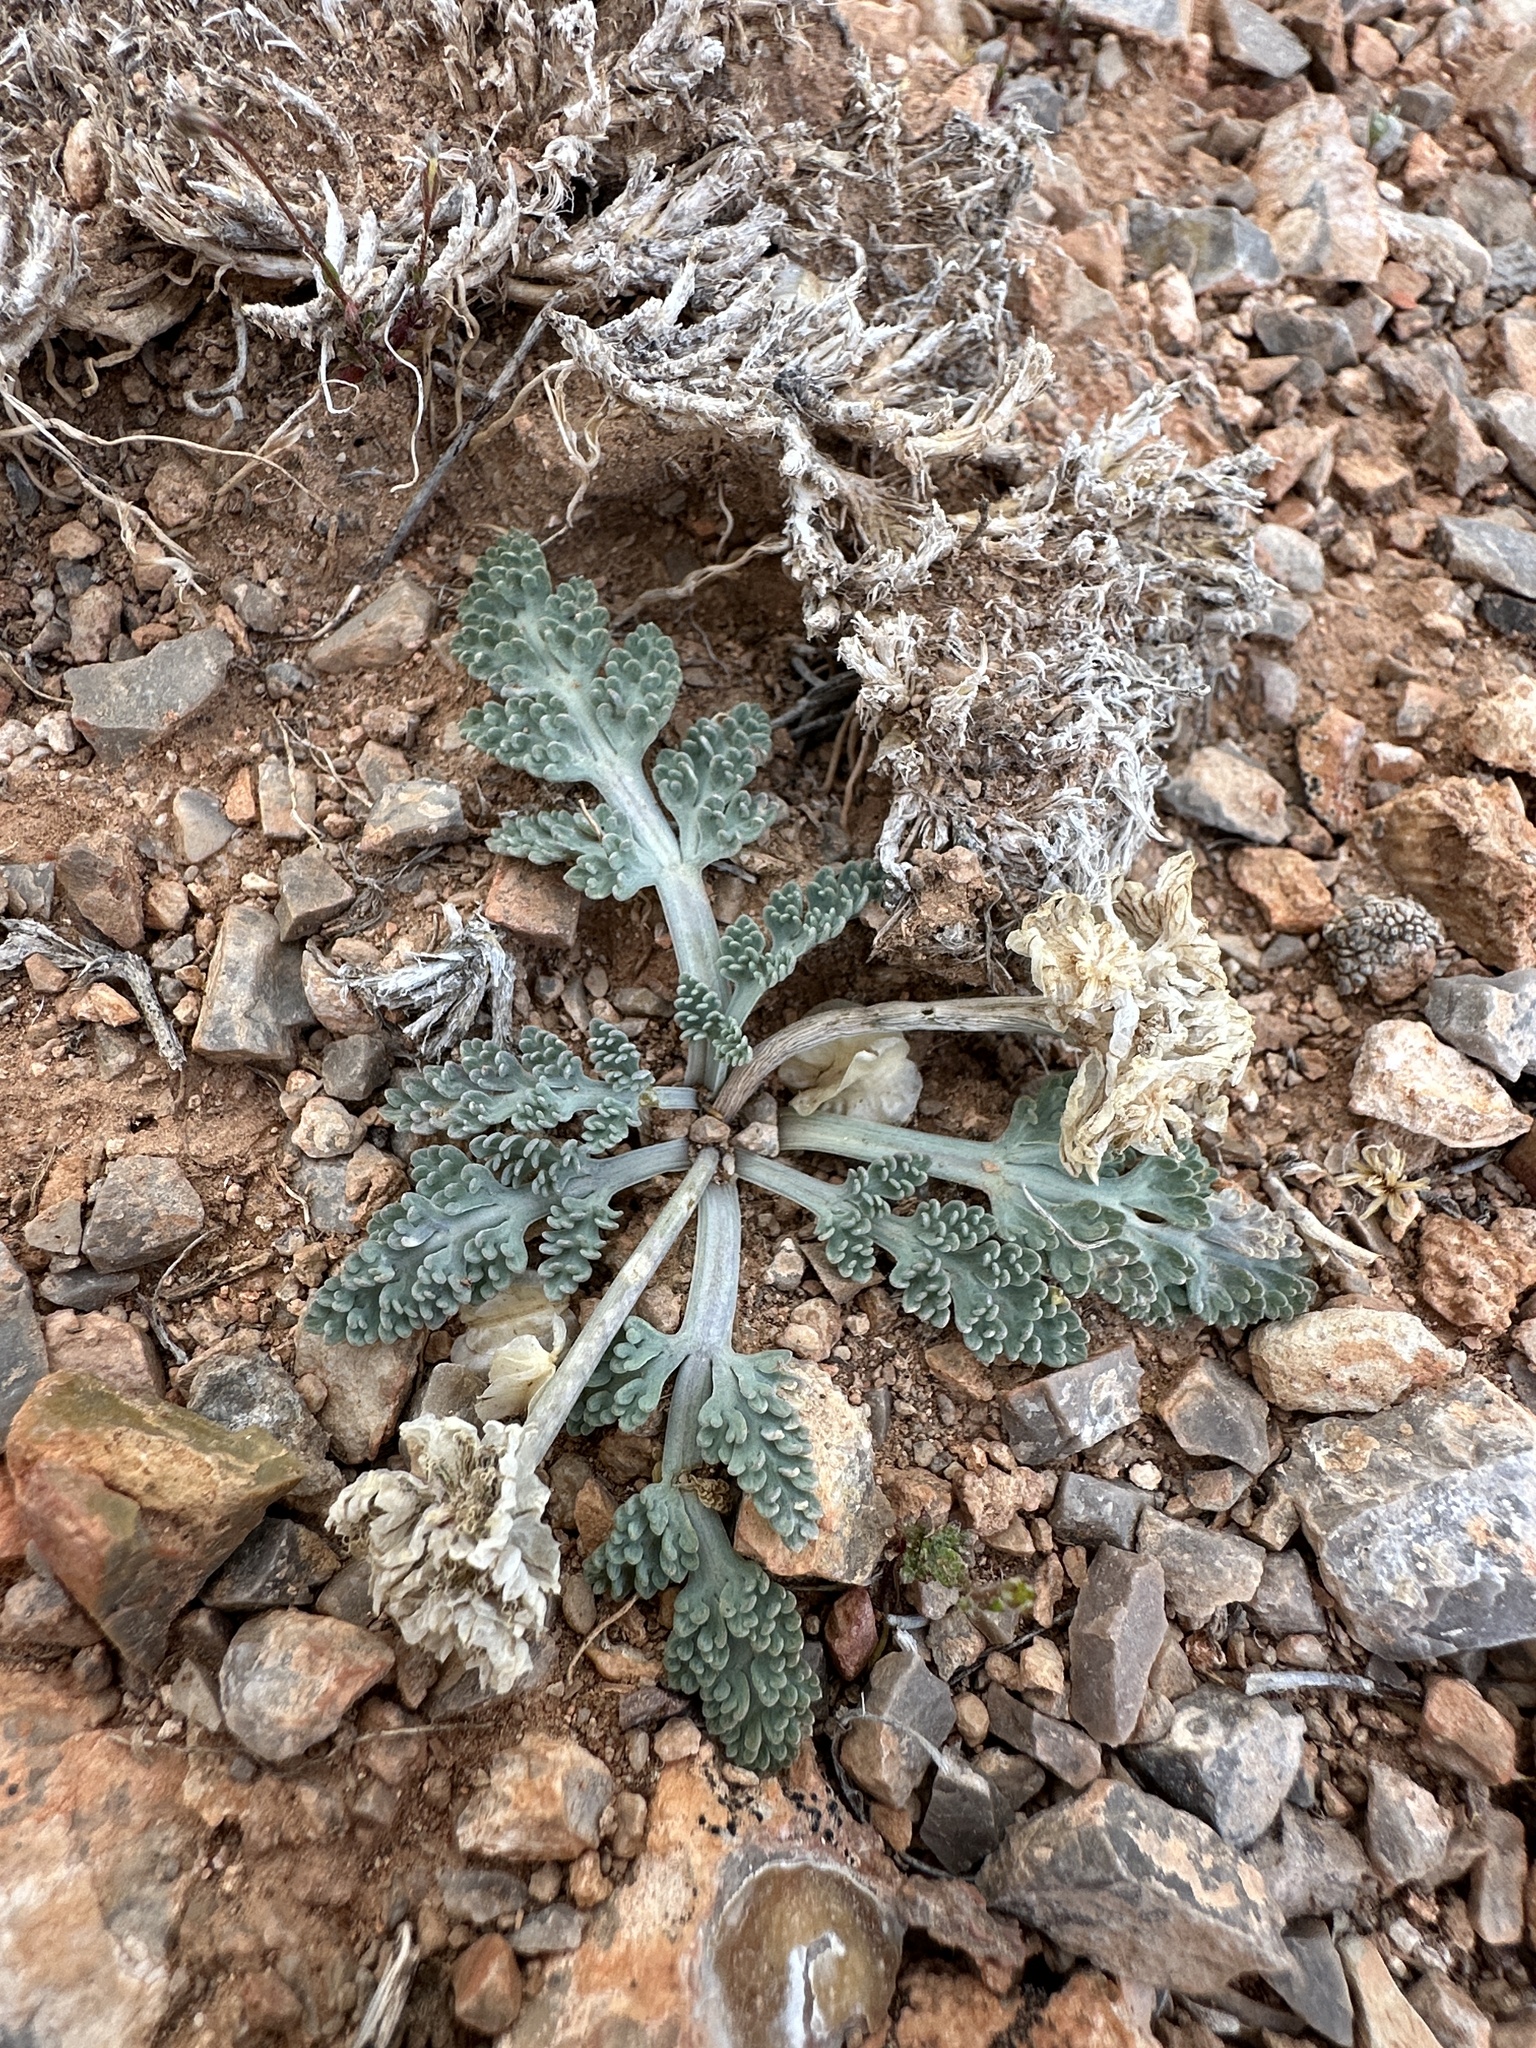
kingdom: Plantae
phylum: Tracheophyta
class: Magnoliopsida
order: Apiales
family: Apiaceae
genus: Vesper
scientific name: Vesper purpurascens
